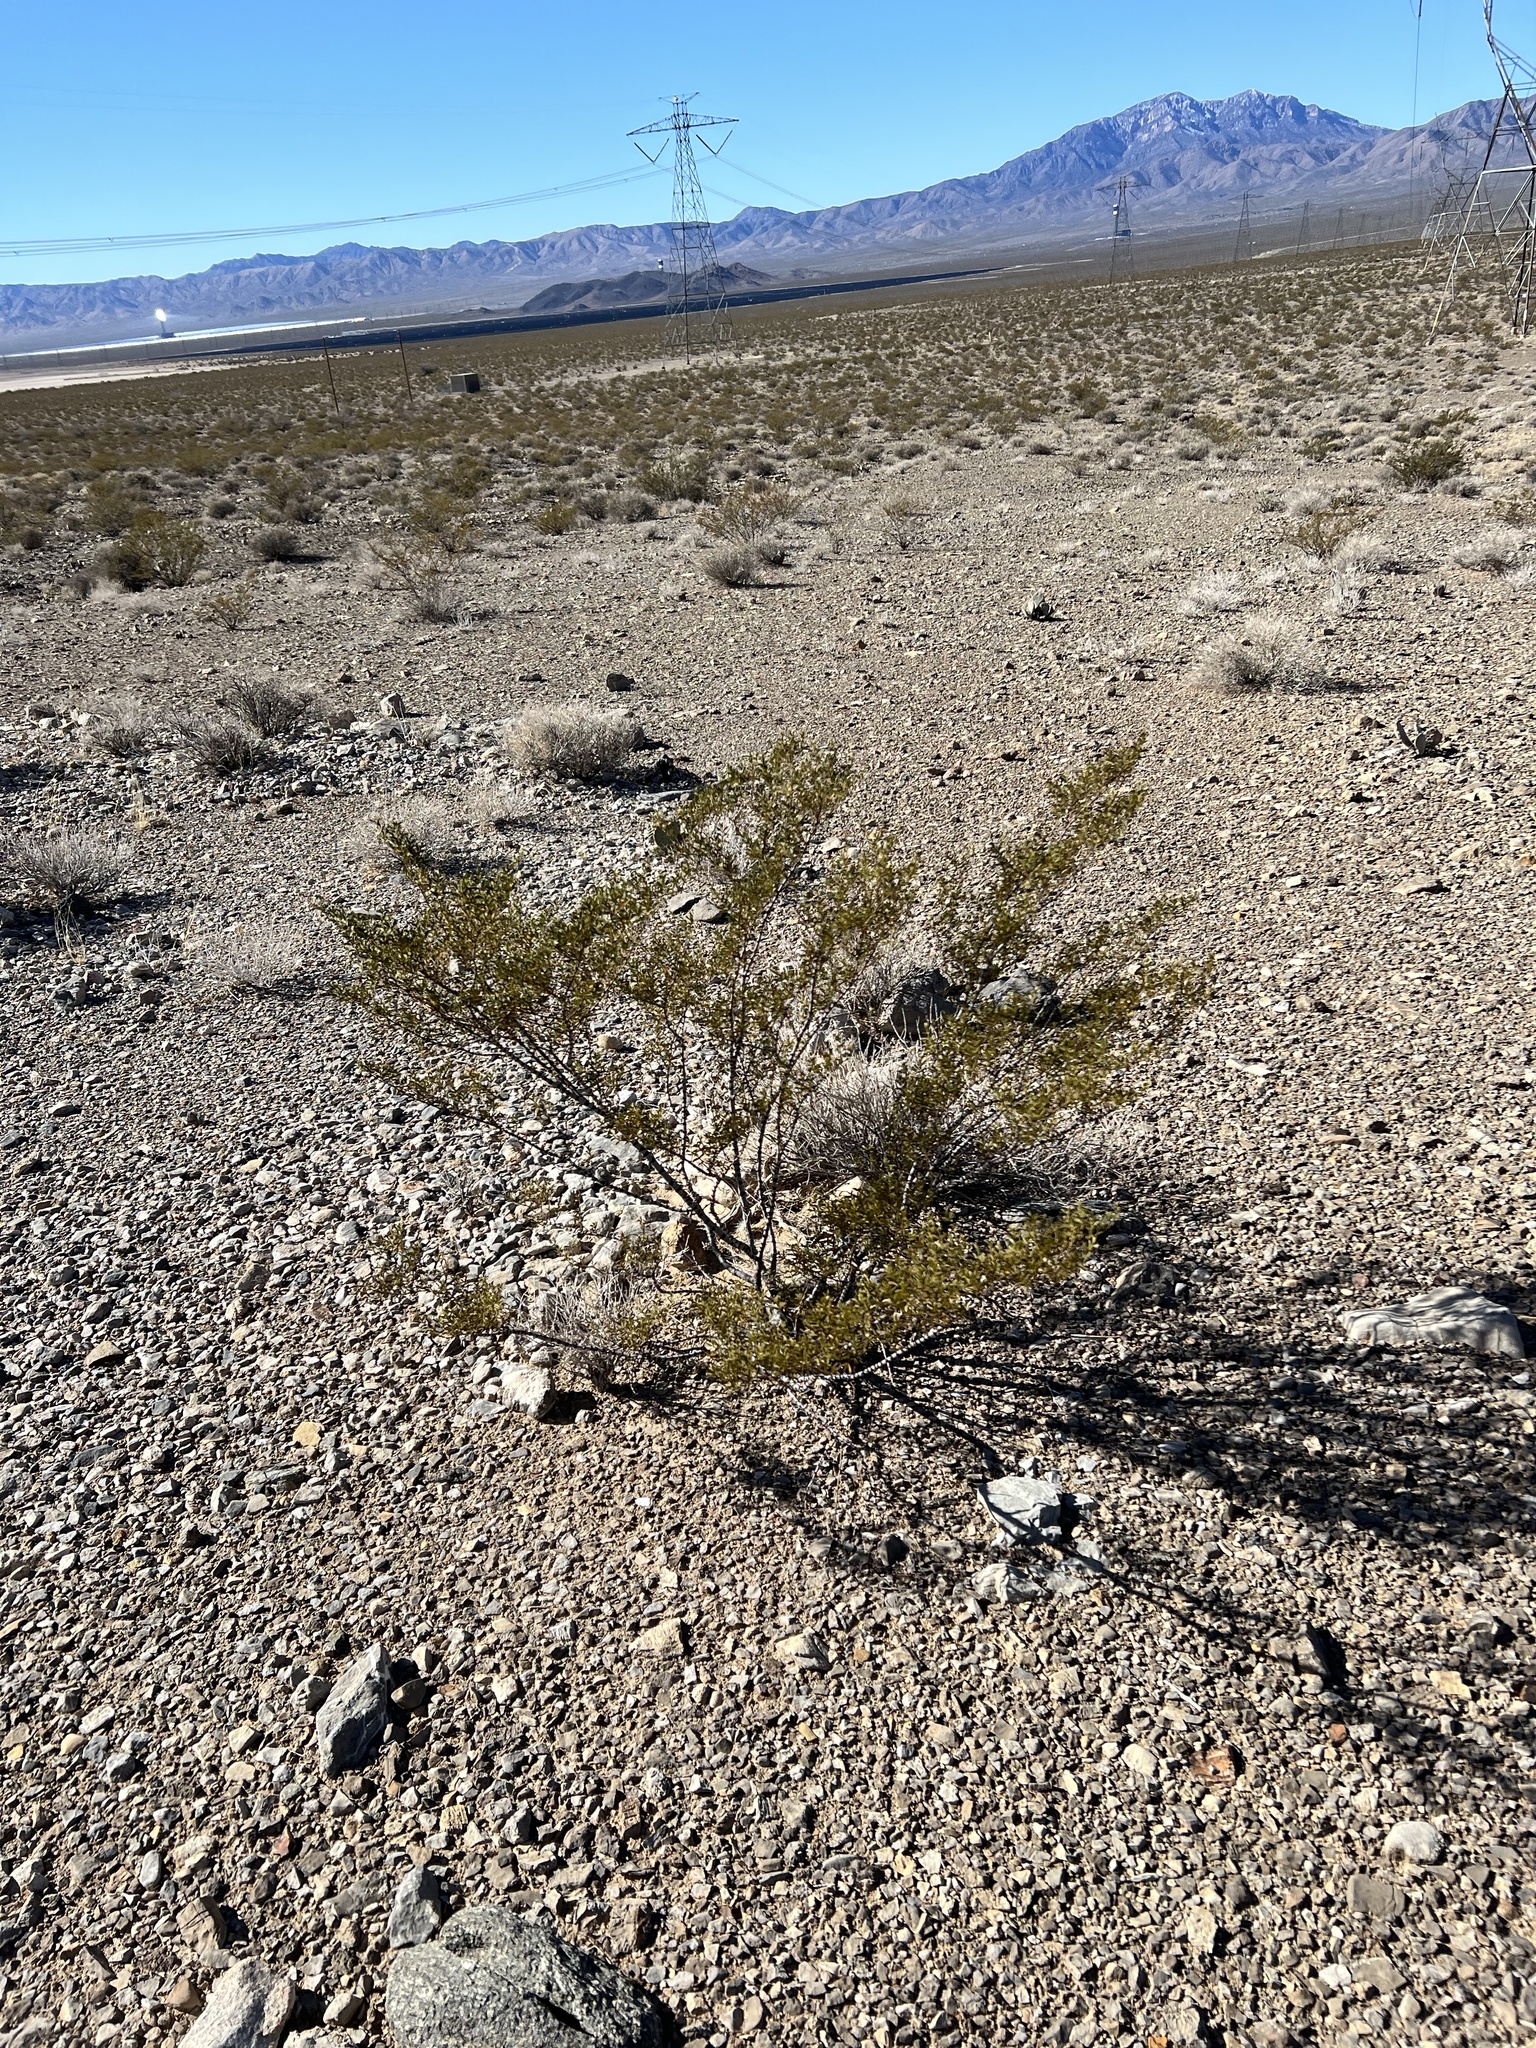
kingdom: Plantae
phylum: Tracheophyta
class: Magnoliopsida
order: Zygophyllales
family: Zygophyllaceae
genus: Larrea
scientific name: Larrea tridentata
